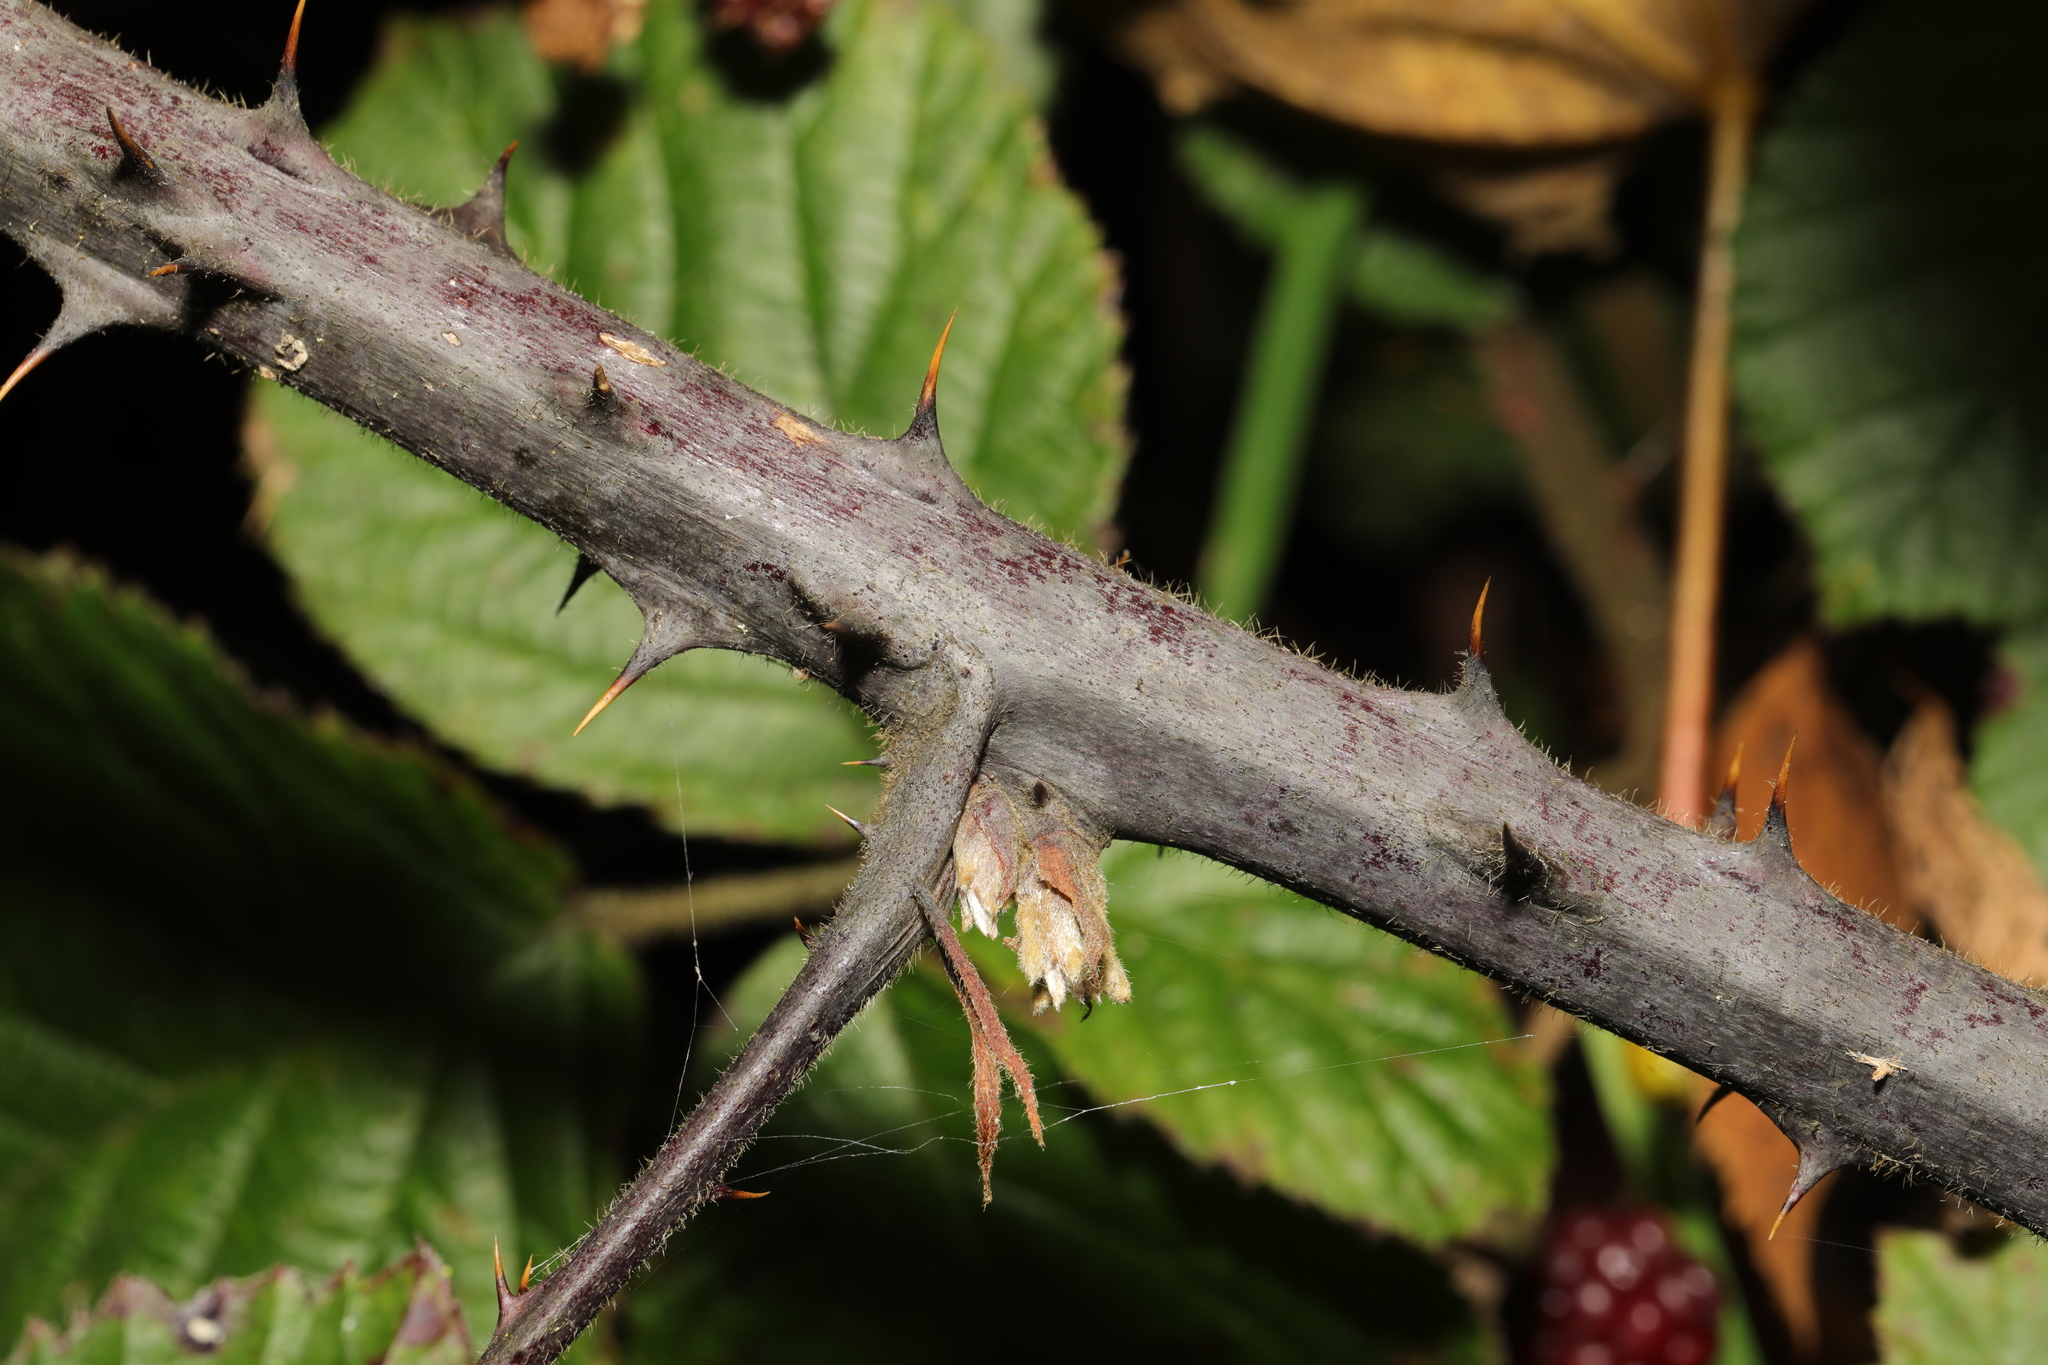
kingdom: Plantae
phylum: Tracheophyta
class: Magnoliopsida
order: Rosales
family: Rosaceae
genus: Rubus
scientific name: Rubus vestitus
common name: European blackberry
